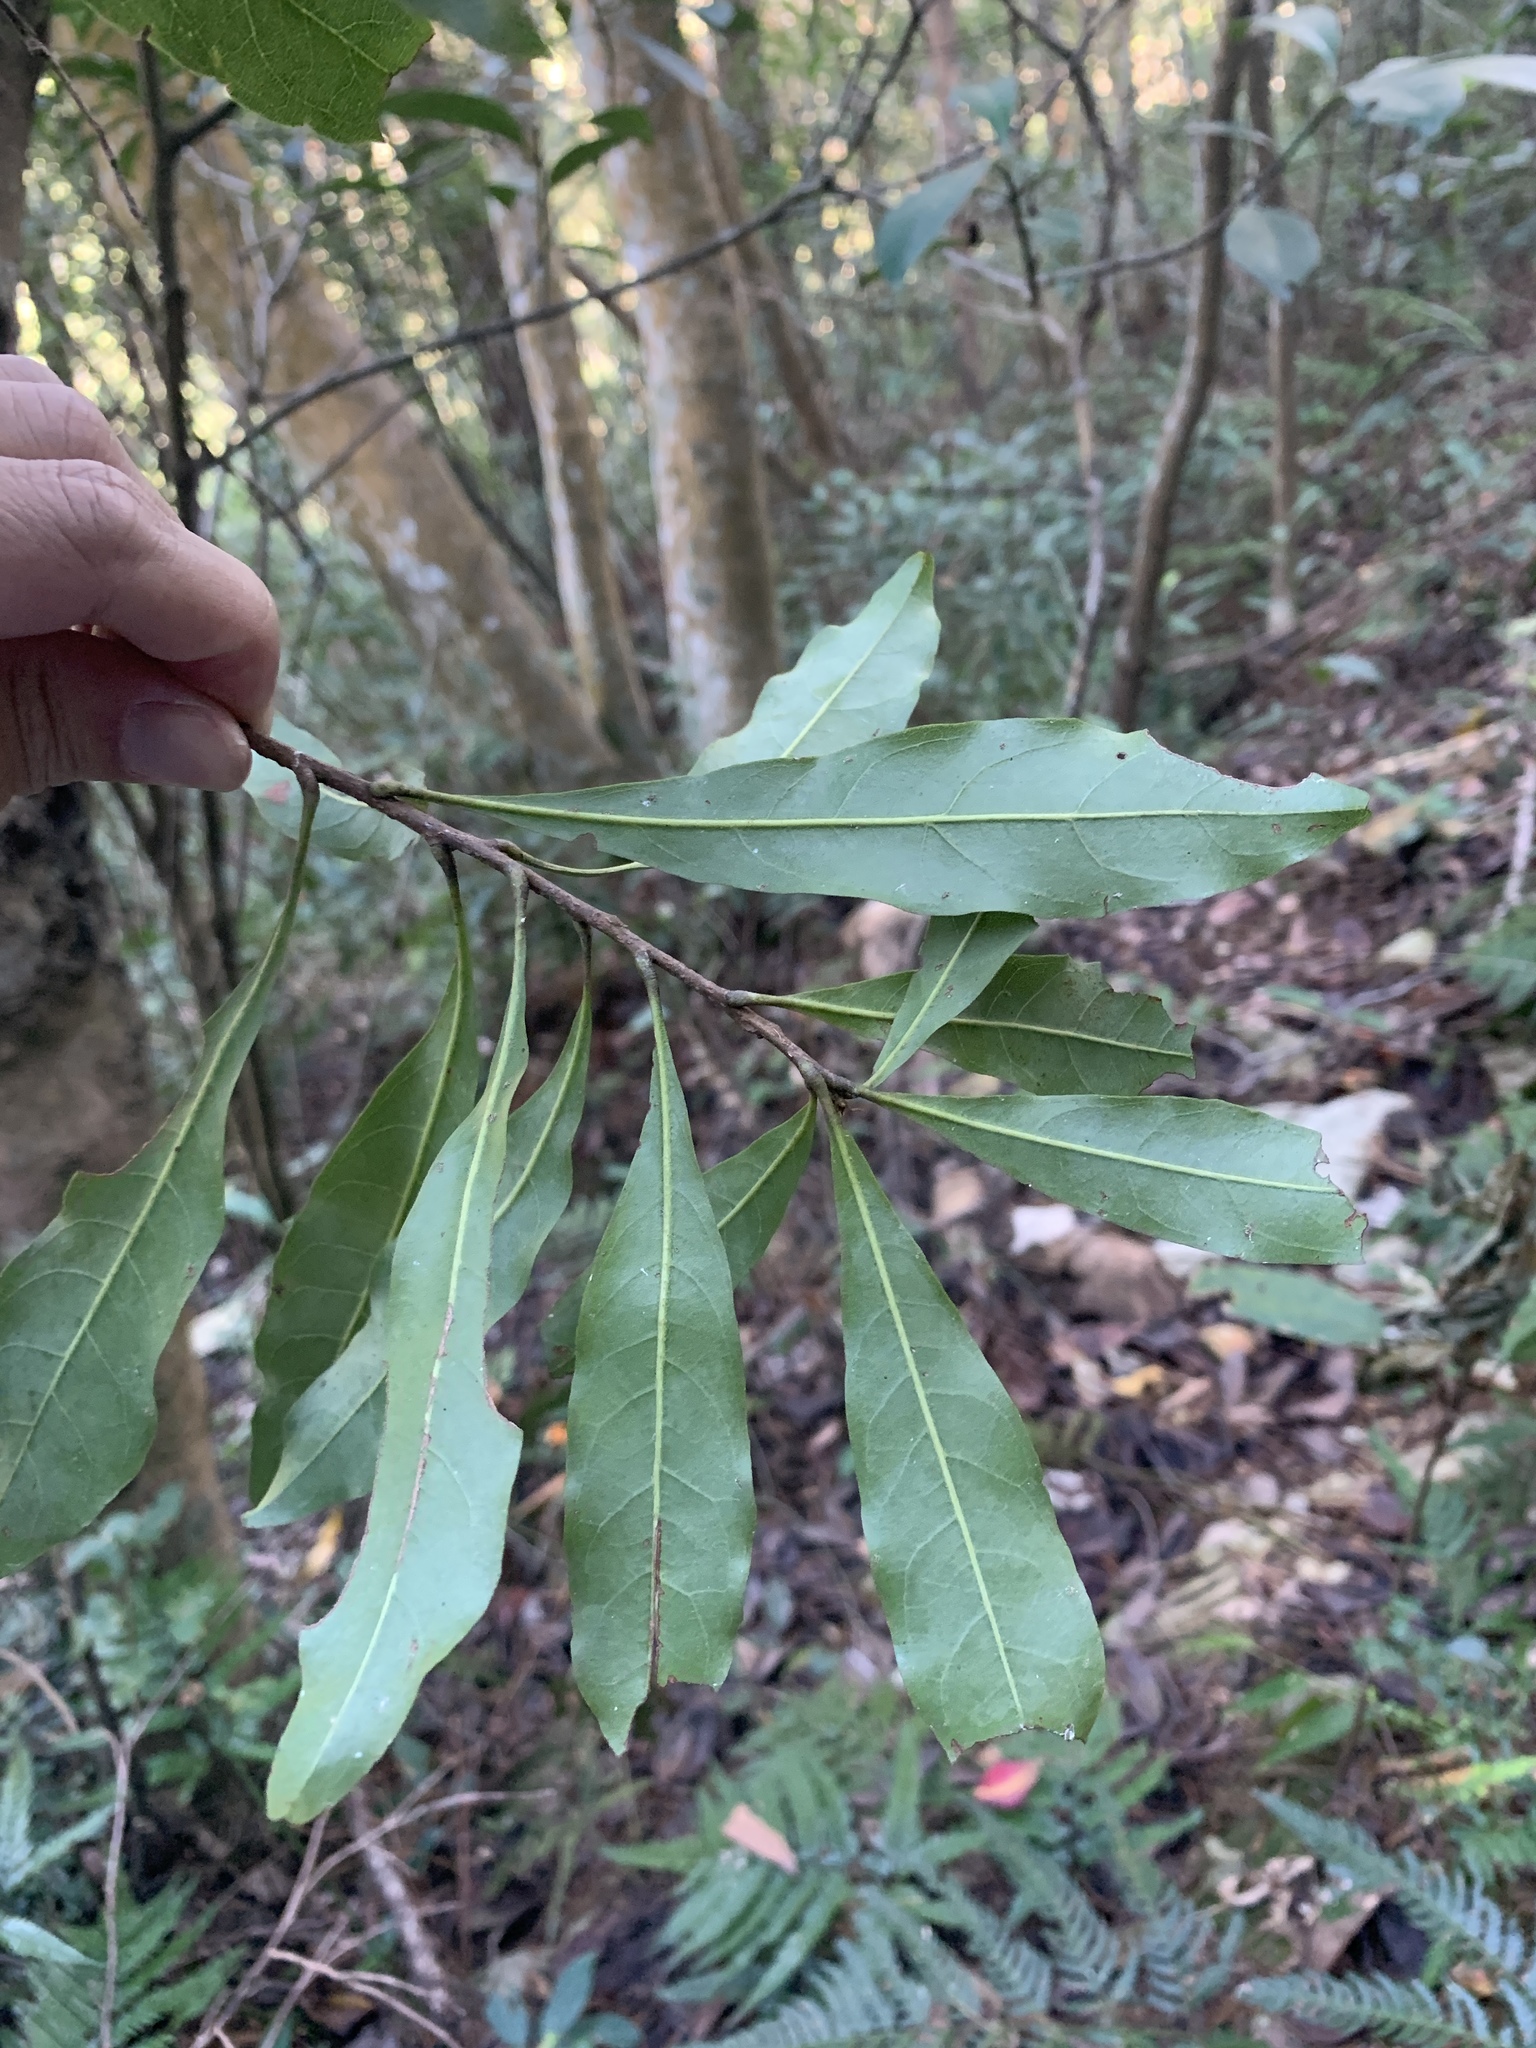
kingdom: Plantae
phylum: Tracheophyta
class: Magnoliopsida
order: Fagales
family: Myricaceae
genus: Morella
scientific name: Morella rubra
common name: Red bayberry
